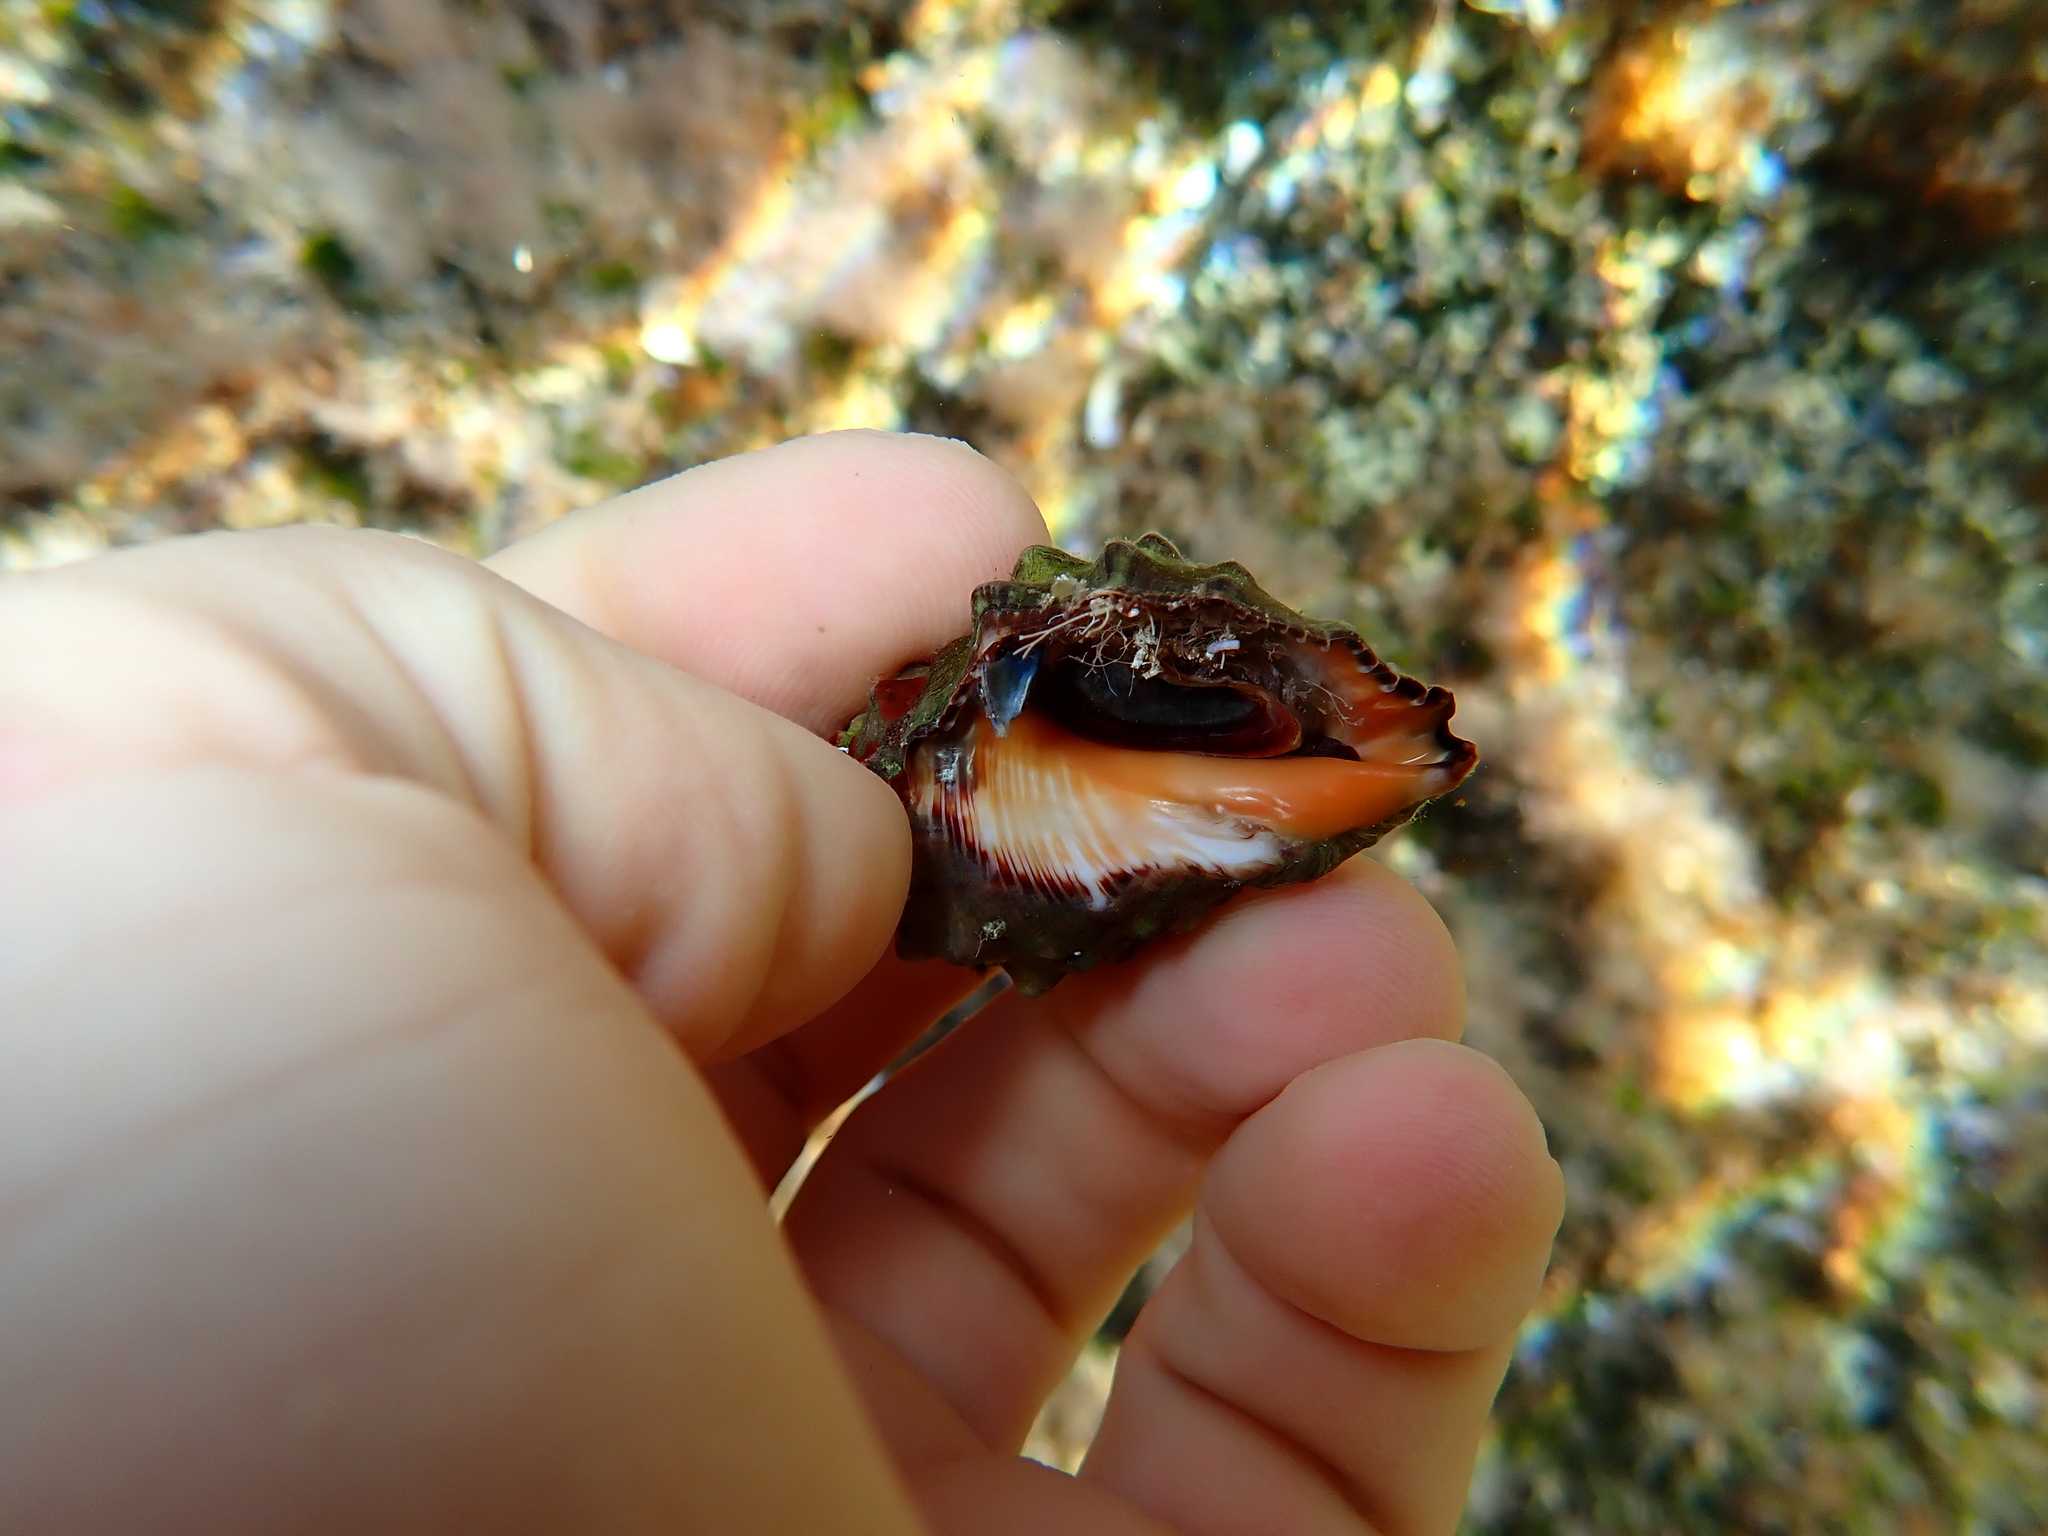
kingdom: Animalia
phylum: Mollusca
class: Gastropoda
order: Neogastropoda
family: Muricidae
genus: Stramonita
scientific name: Stramonita haemastoma
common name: Florida dog winkle
